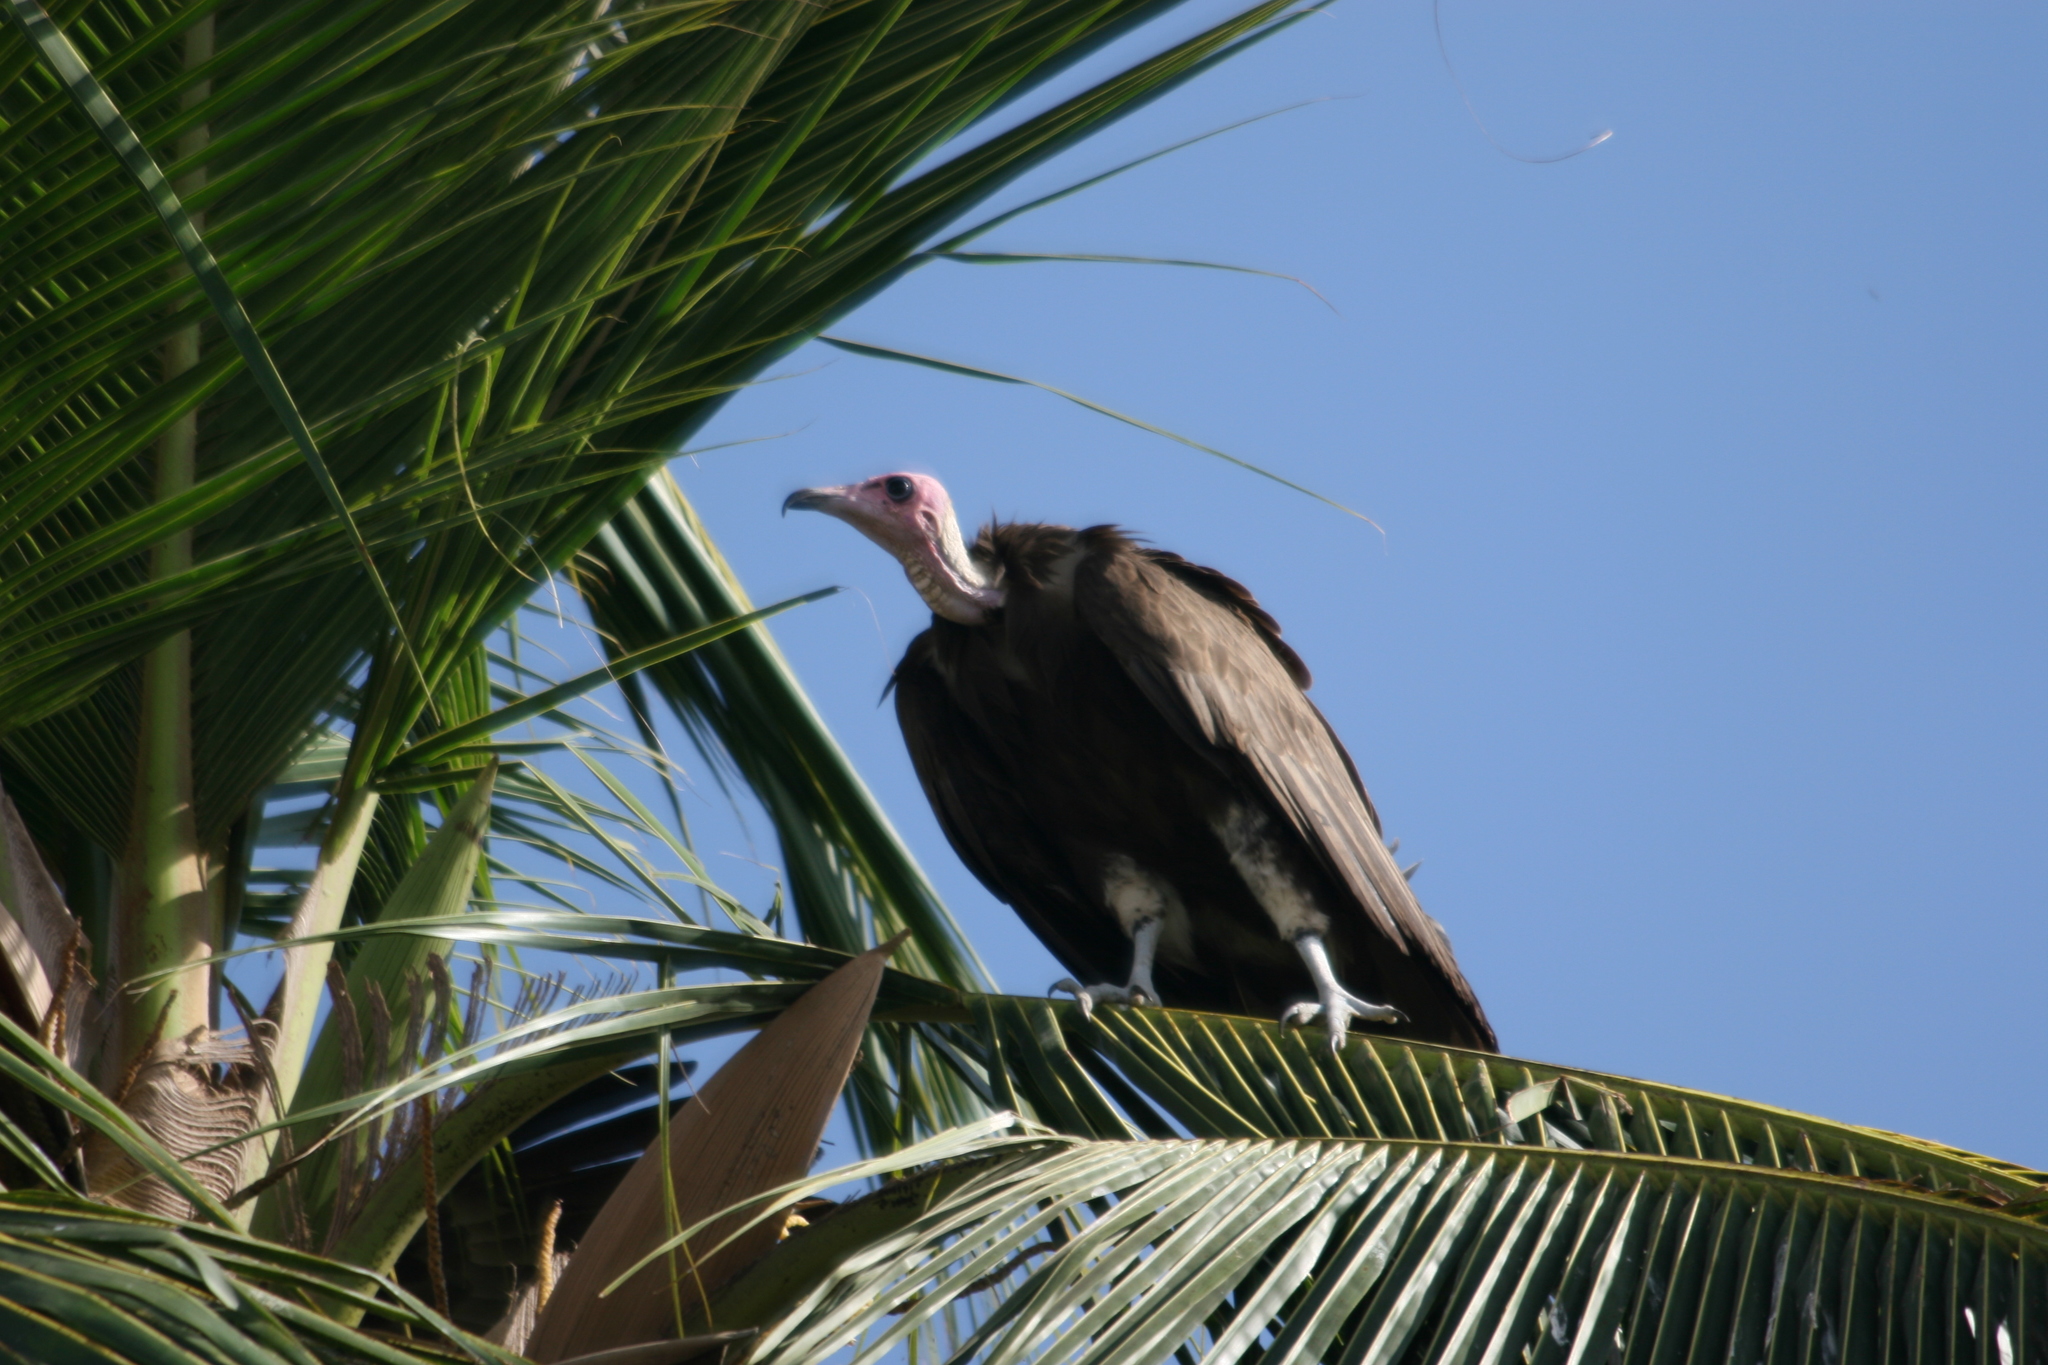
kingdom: Animalia
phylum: Chordata
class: Aves
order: Accipitriformes
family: Accipitridae
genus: Necrosyrtes
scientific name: Necrosyrtes monachus
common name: Hooded vulture
